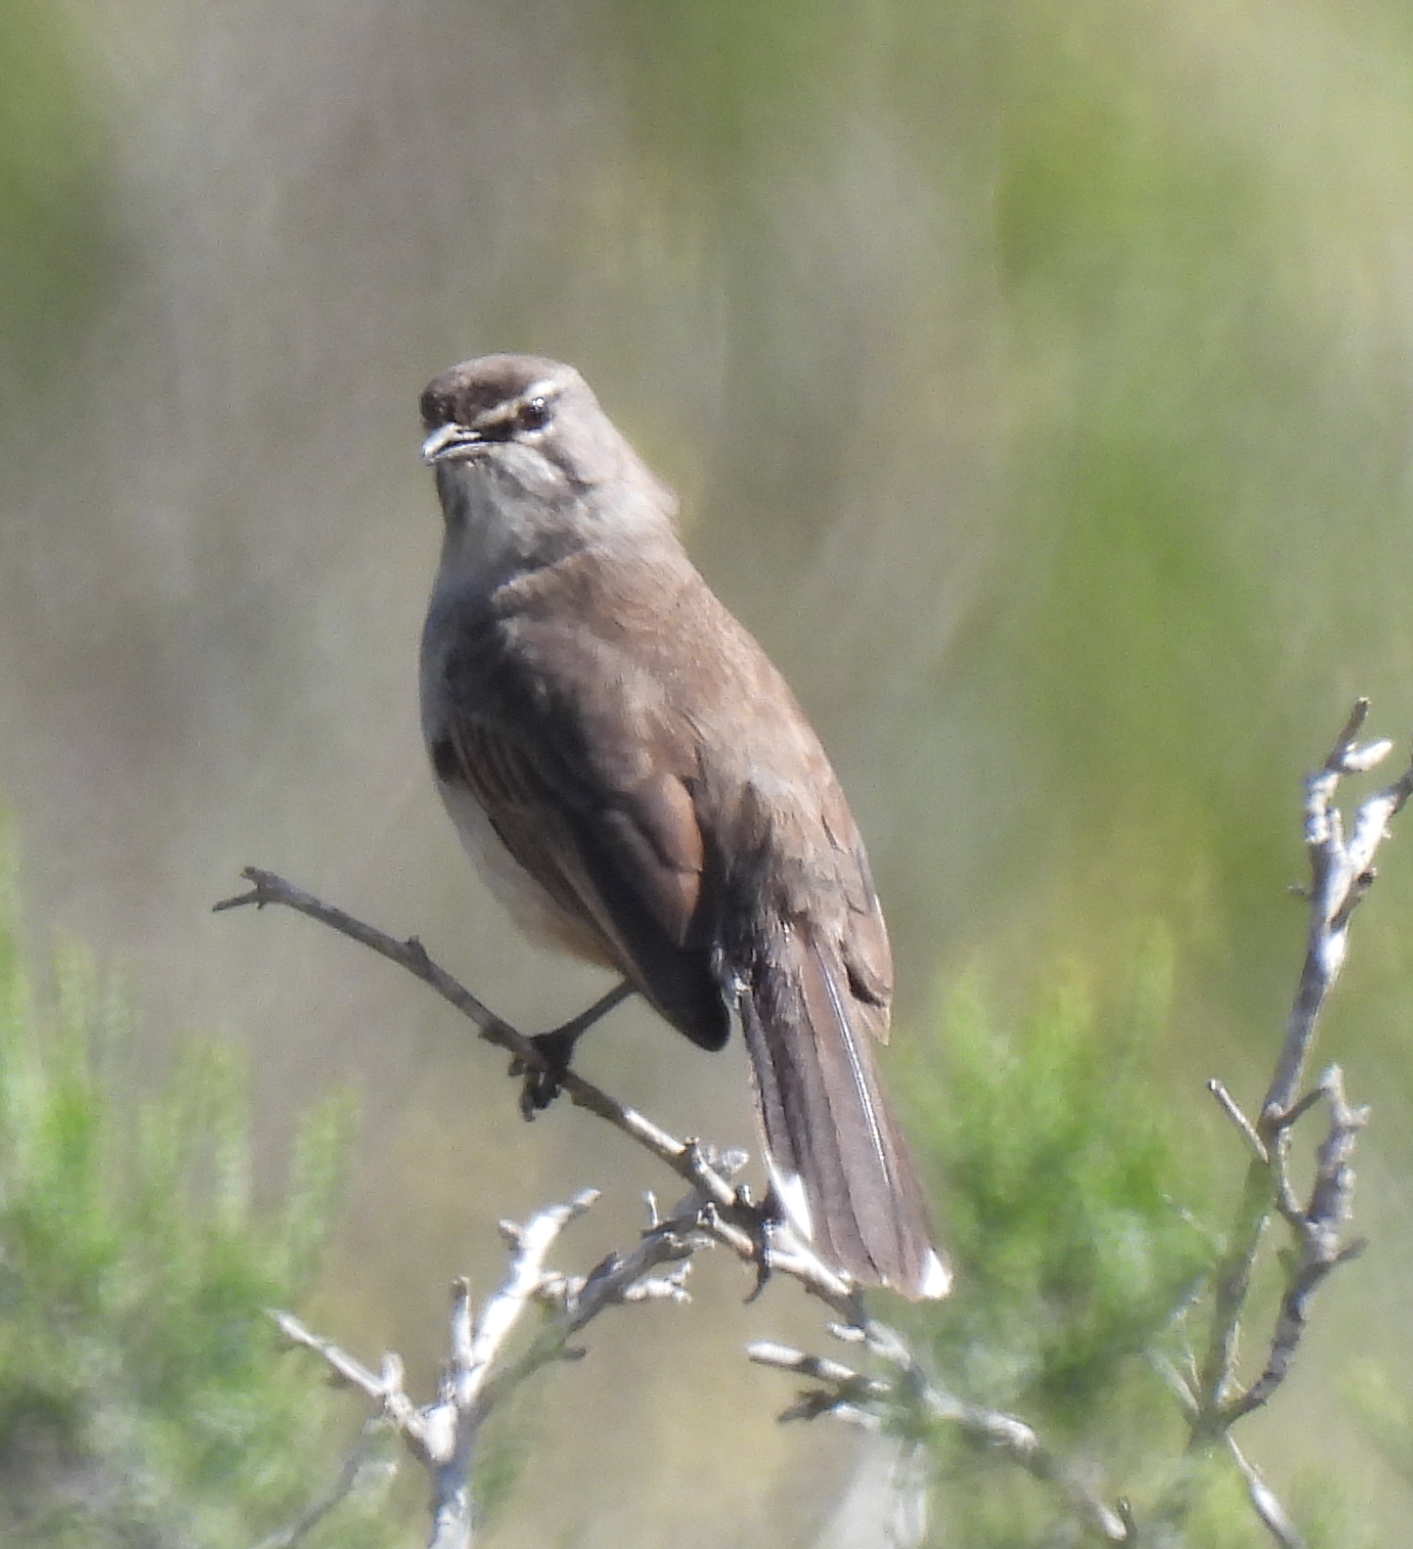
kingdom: Animalia
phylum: Chordata
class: Aves
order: Passeriformes
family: Muscicapidae
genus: Erythropygia
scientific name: Erythropygia coryphoeus
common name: Karoo scrub robin
